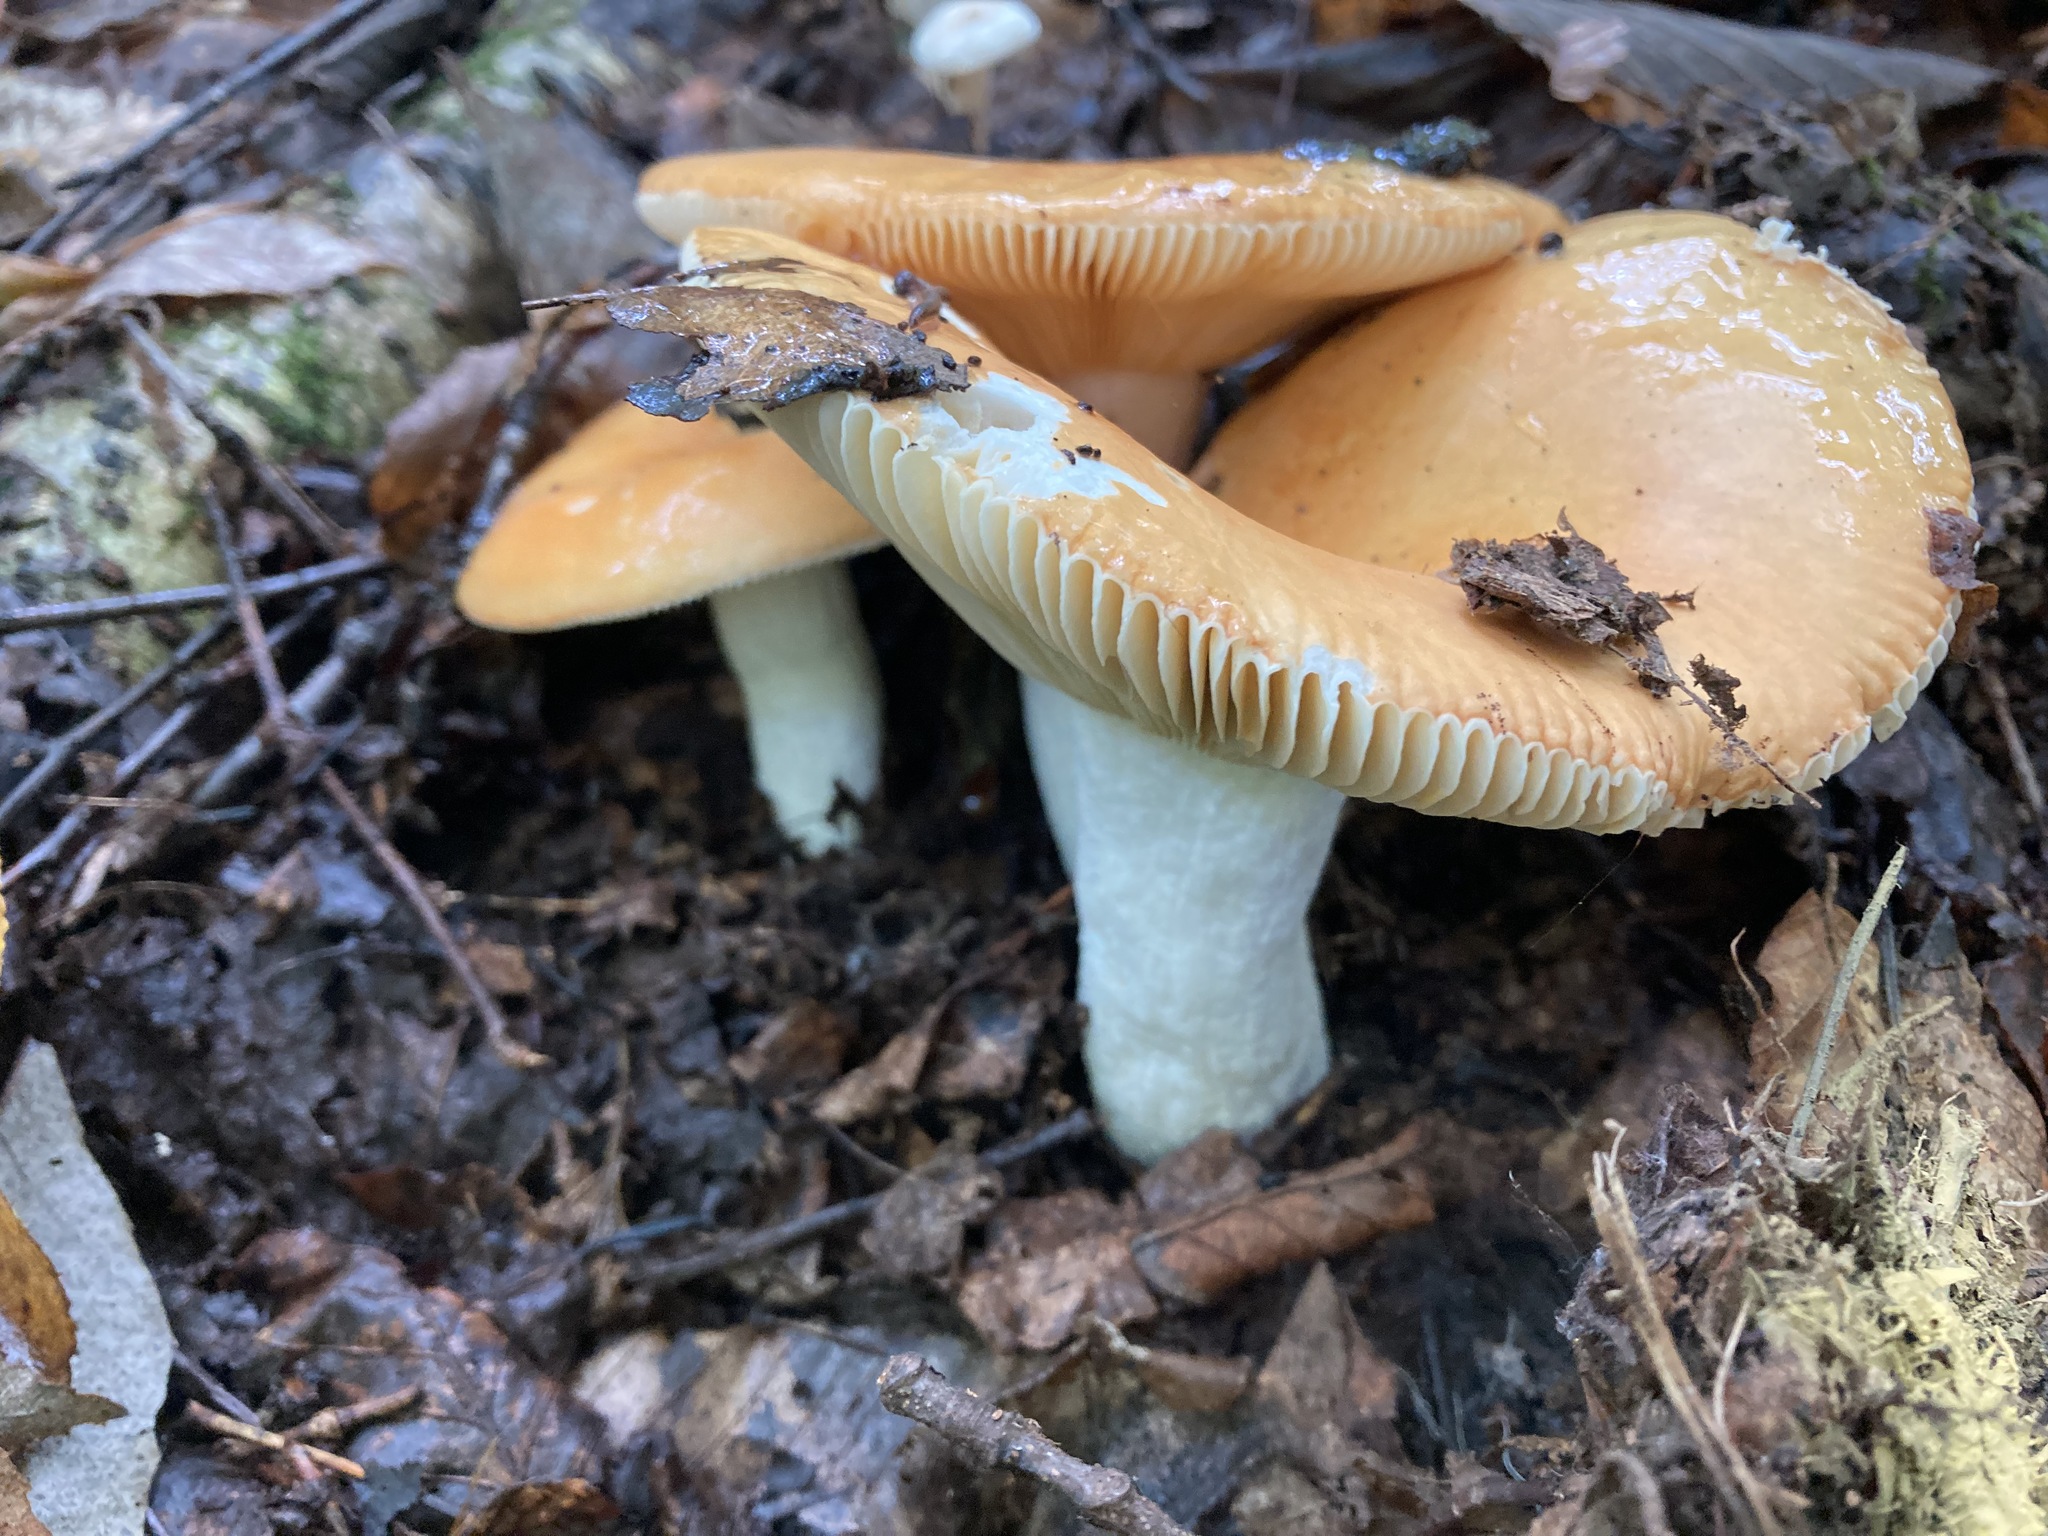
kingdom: Fungi
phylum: Basidiomycota
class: Agaricomycetes
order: Russulales
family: Russulaceae
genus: Russula
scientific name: Russula decolorans
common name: Copper brittlegill
